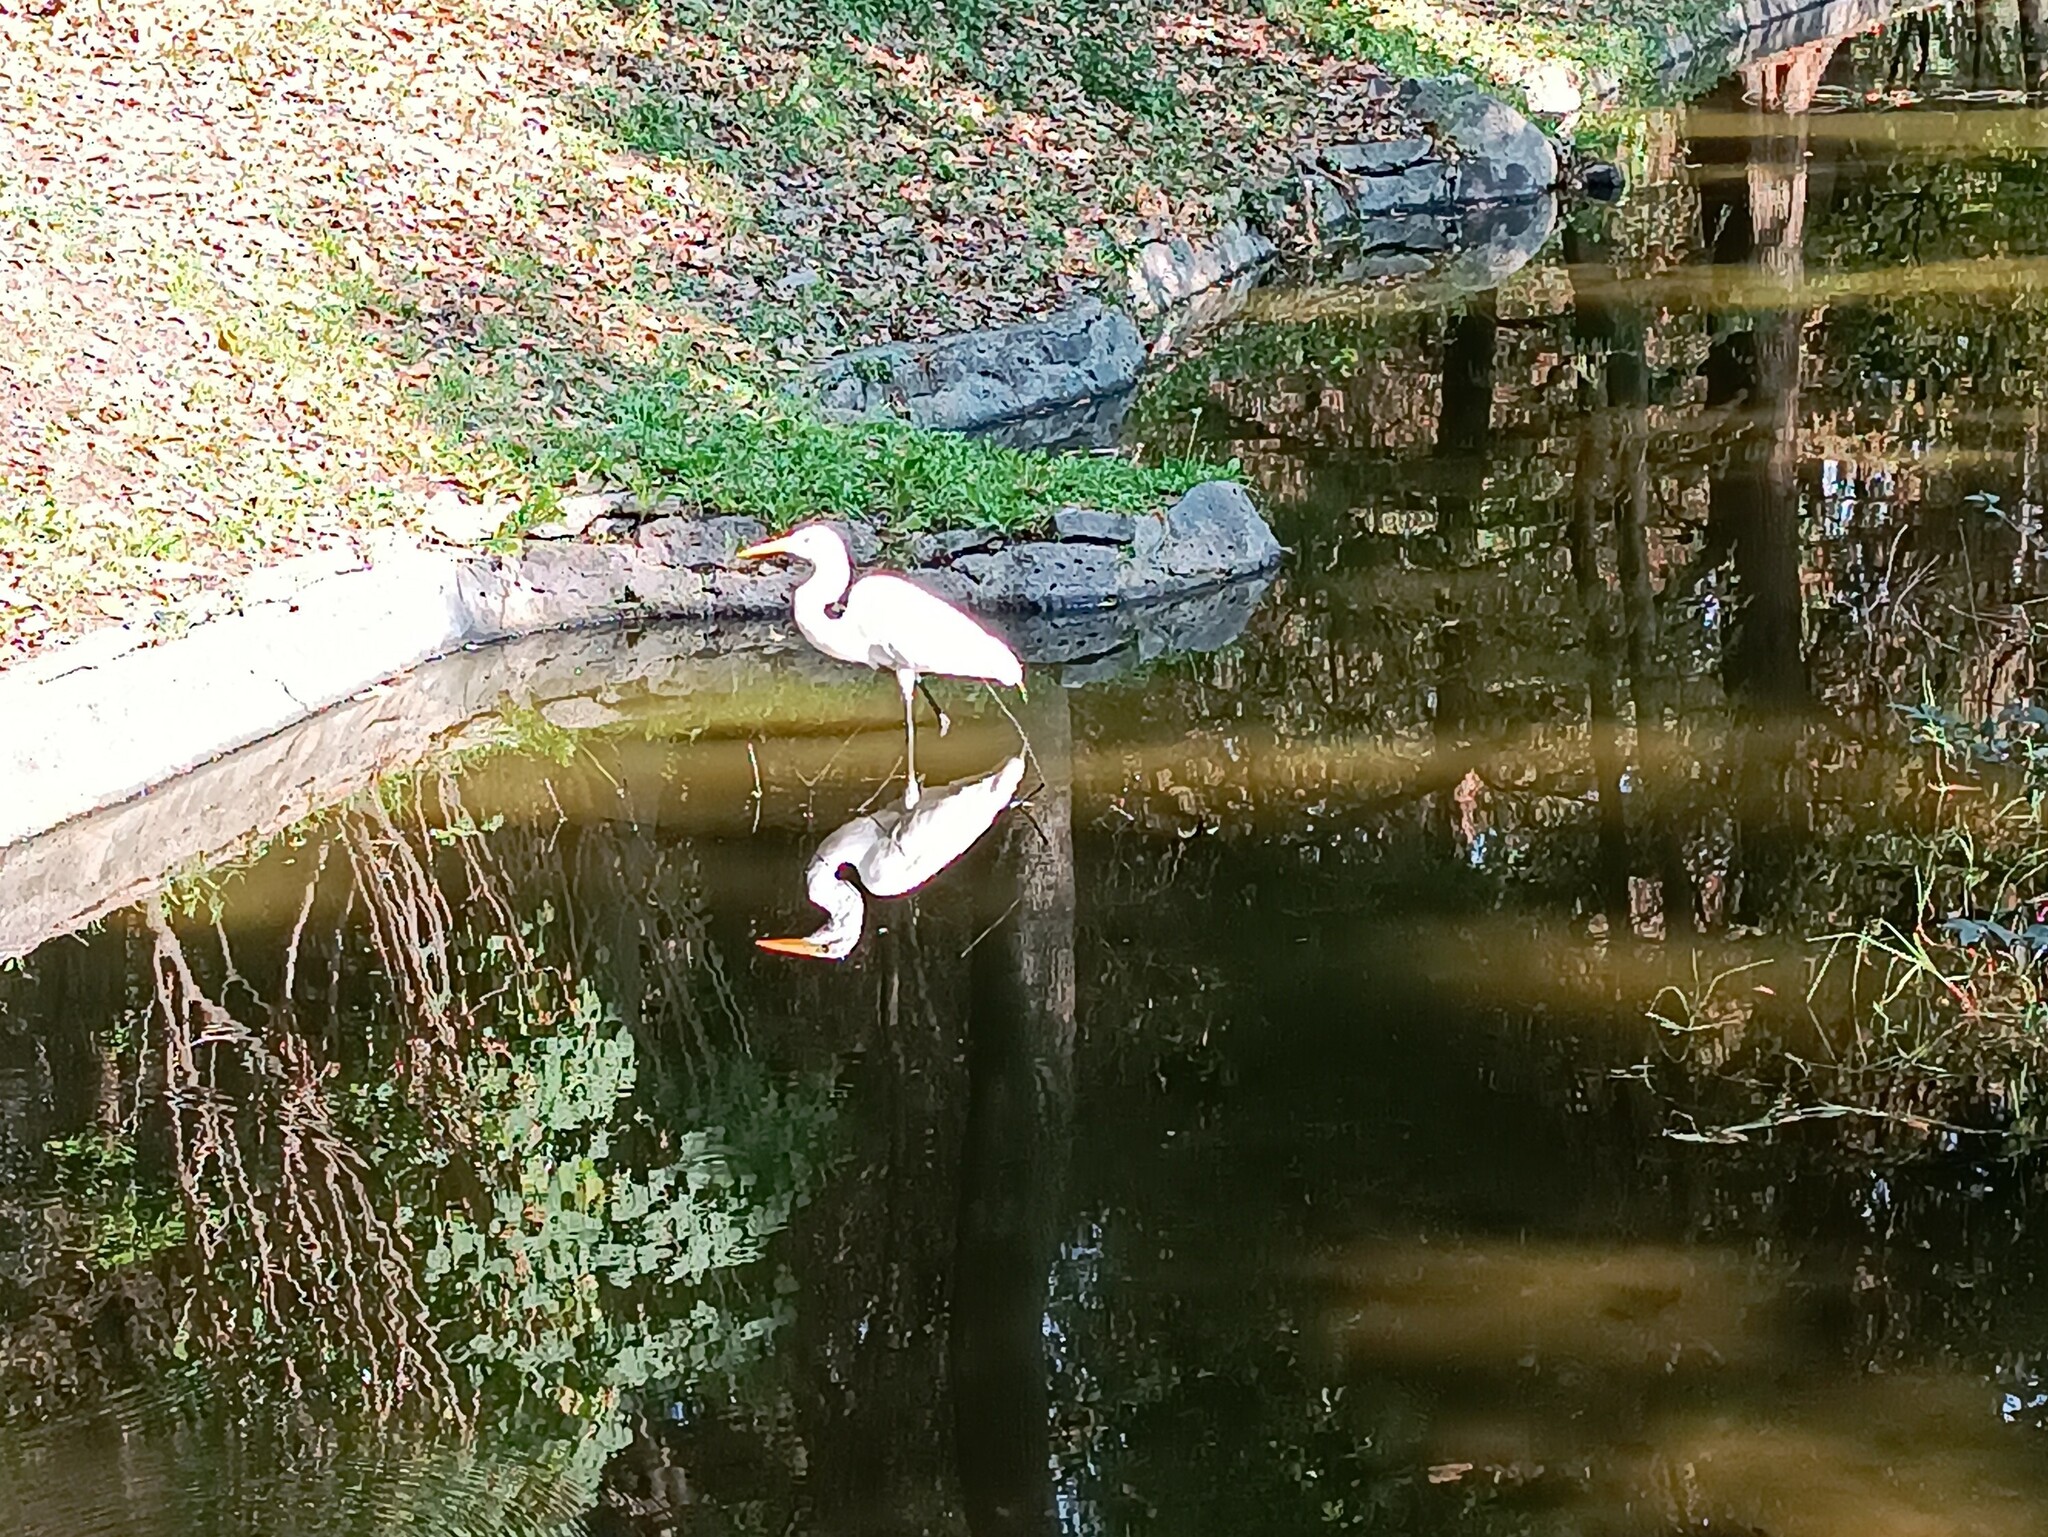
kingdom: Animalia
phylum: Chordata
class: Aves
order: Pelecaniformes
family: Ardeidae
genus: Ardea
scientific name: Ardea alba
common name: Great egret
